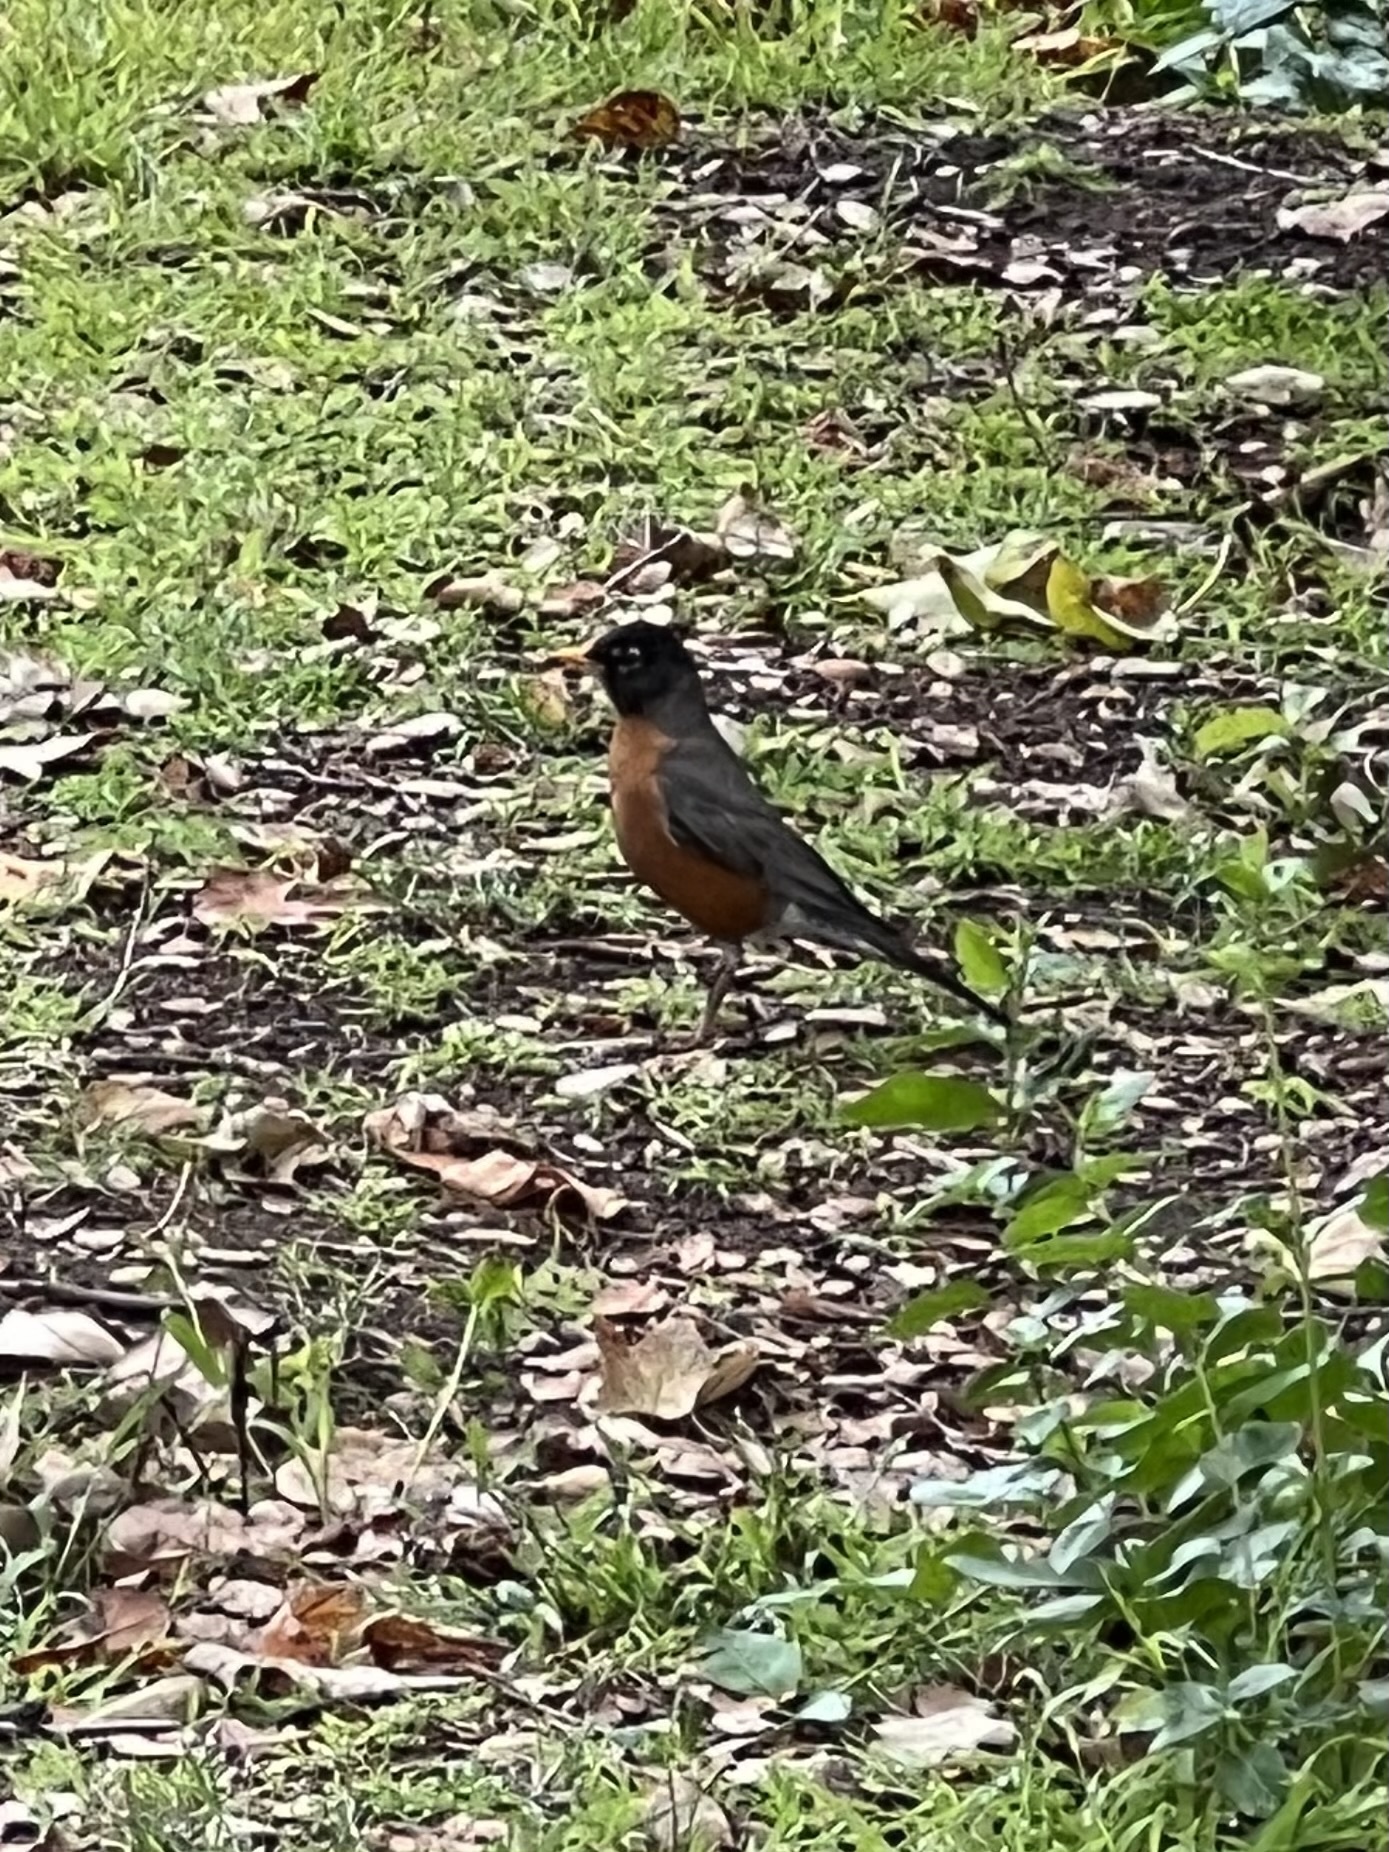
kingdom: Animalia
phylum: Chordata
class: Aves
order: Passeriformes
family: Turdidae
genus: Turdus
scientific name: Turdus migratorius
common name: American robin
